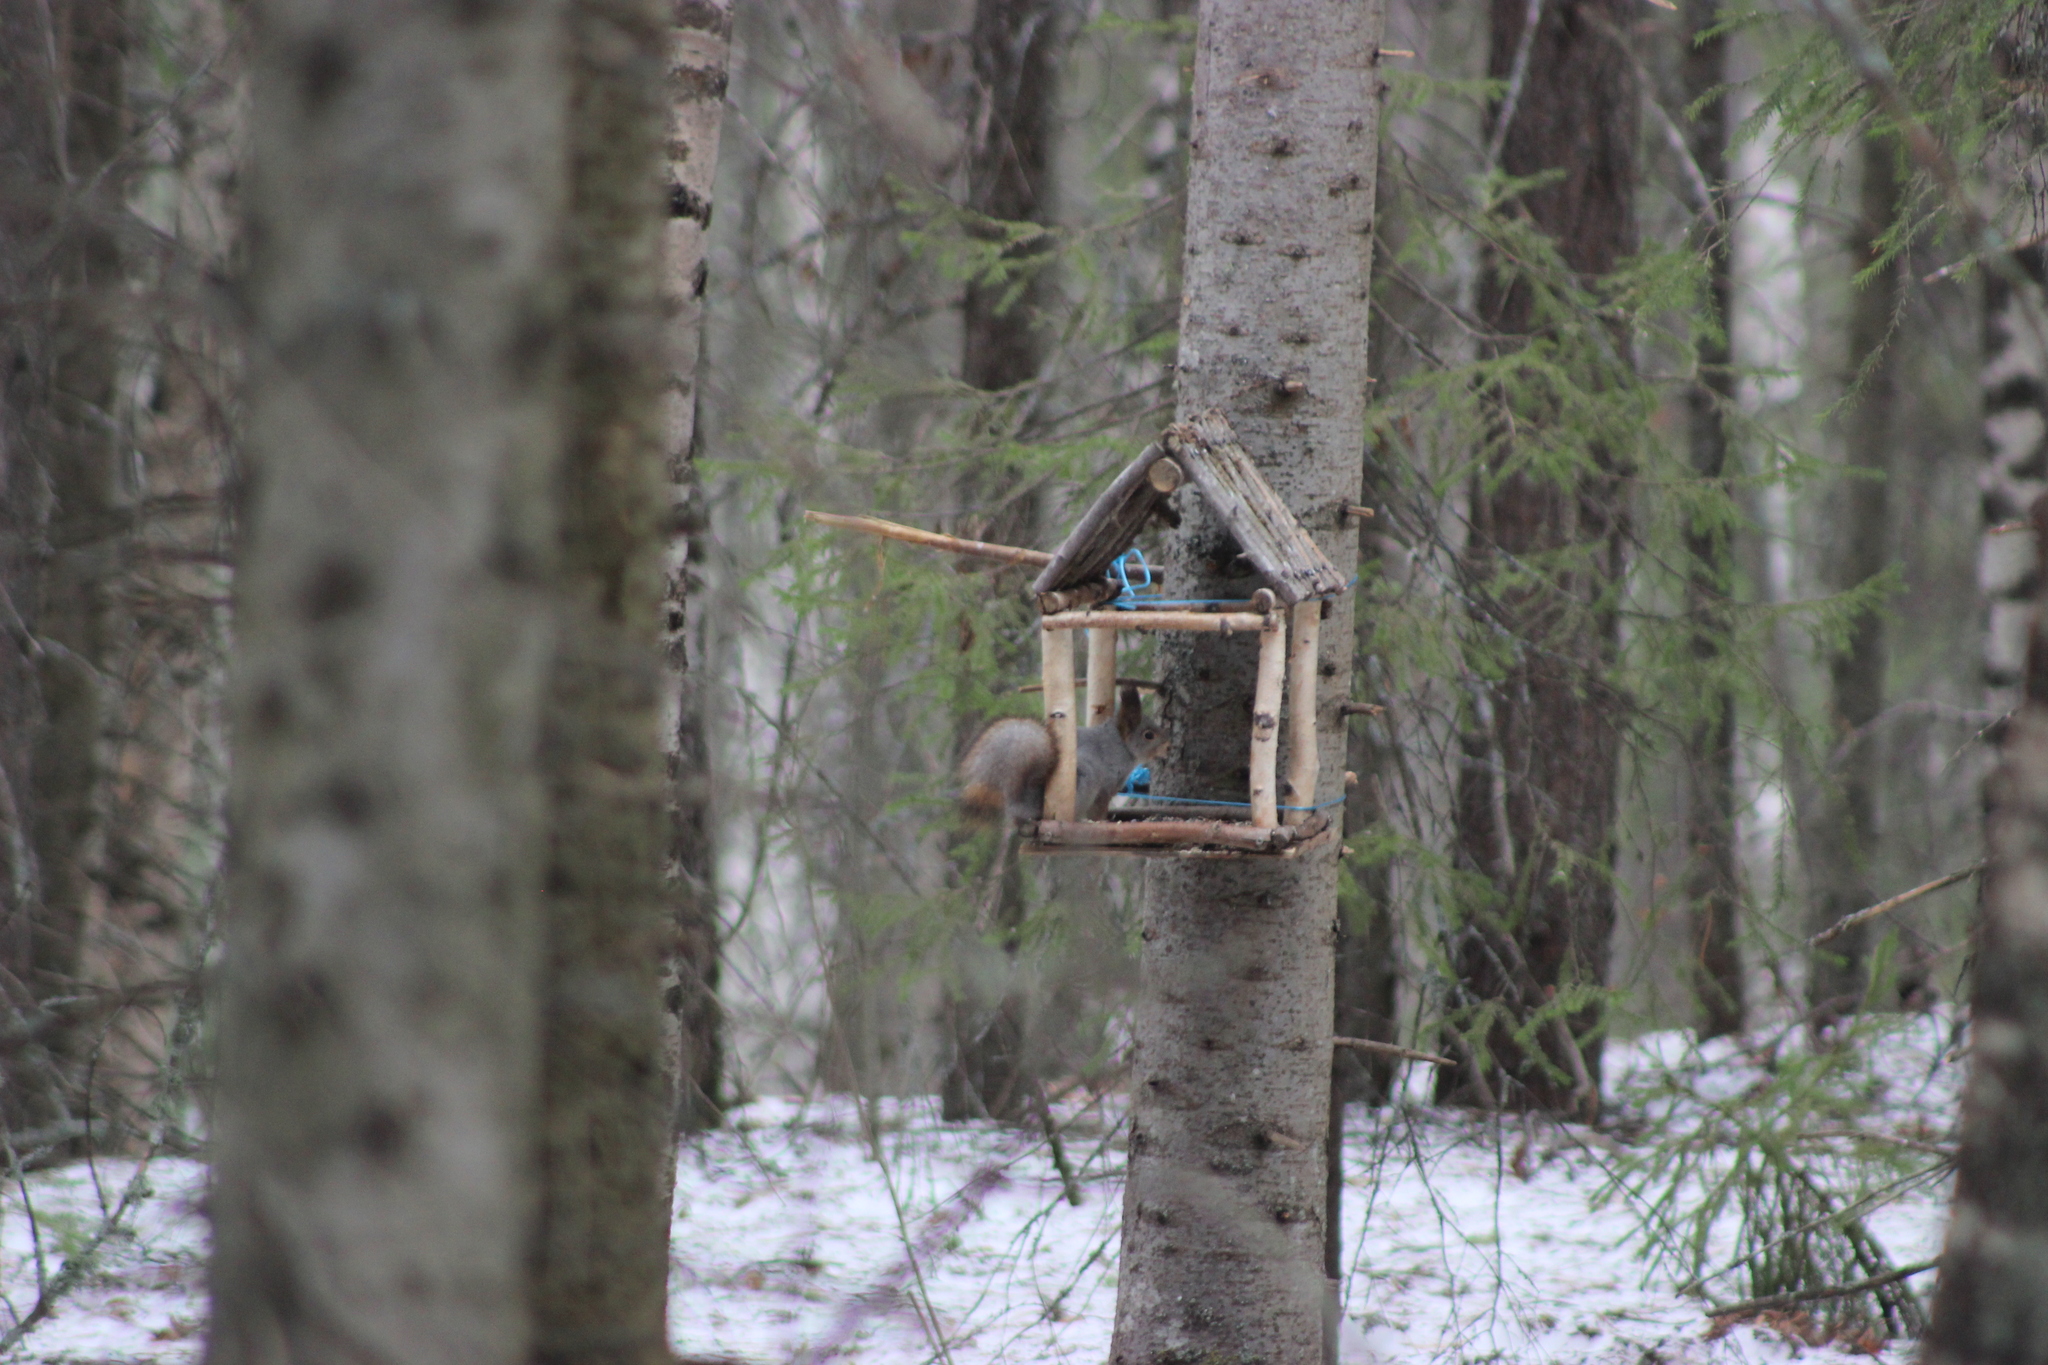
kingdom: Animalia
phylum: Chordata
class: Mammalia
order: Rodentia
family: Sciuridae
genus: Sciurus
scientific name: Sciurus vulgaris
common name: Eurasian red squirrel
